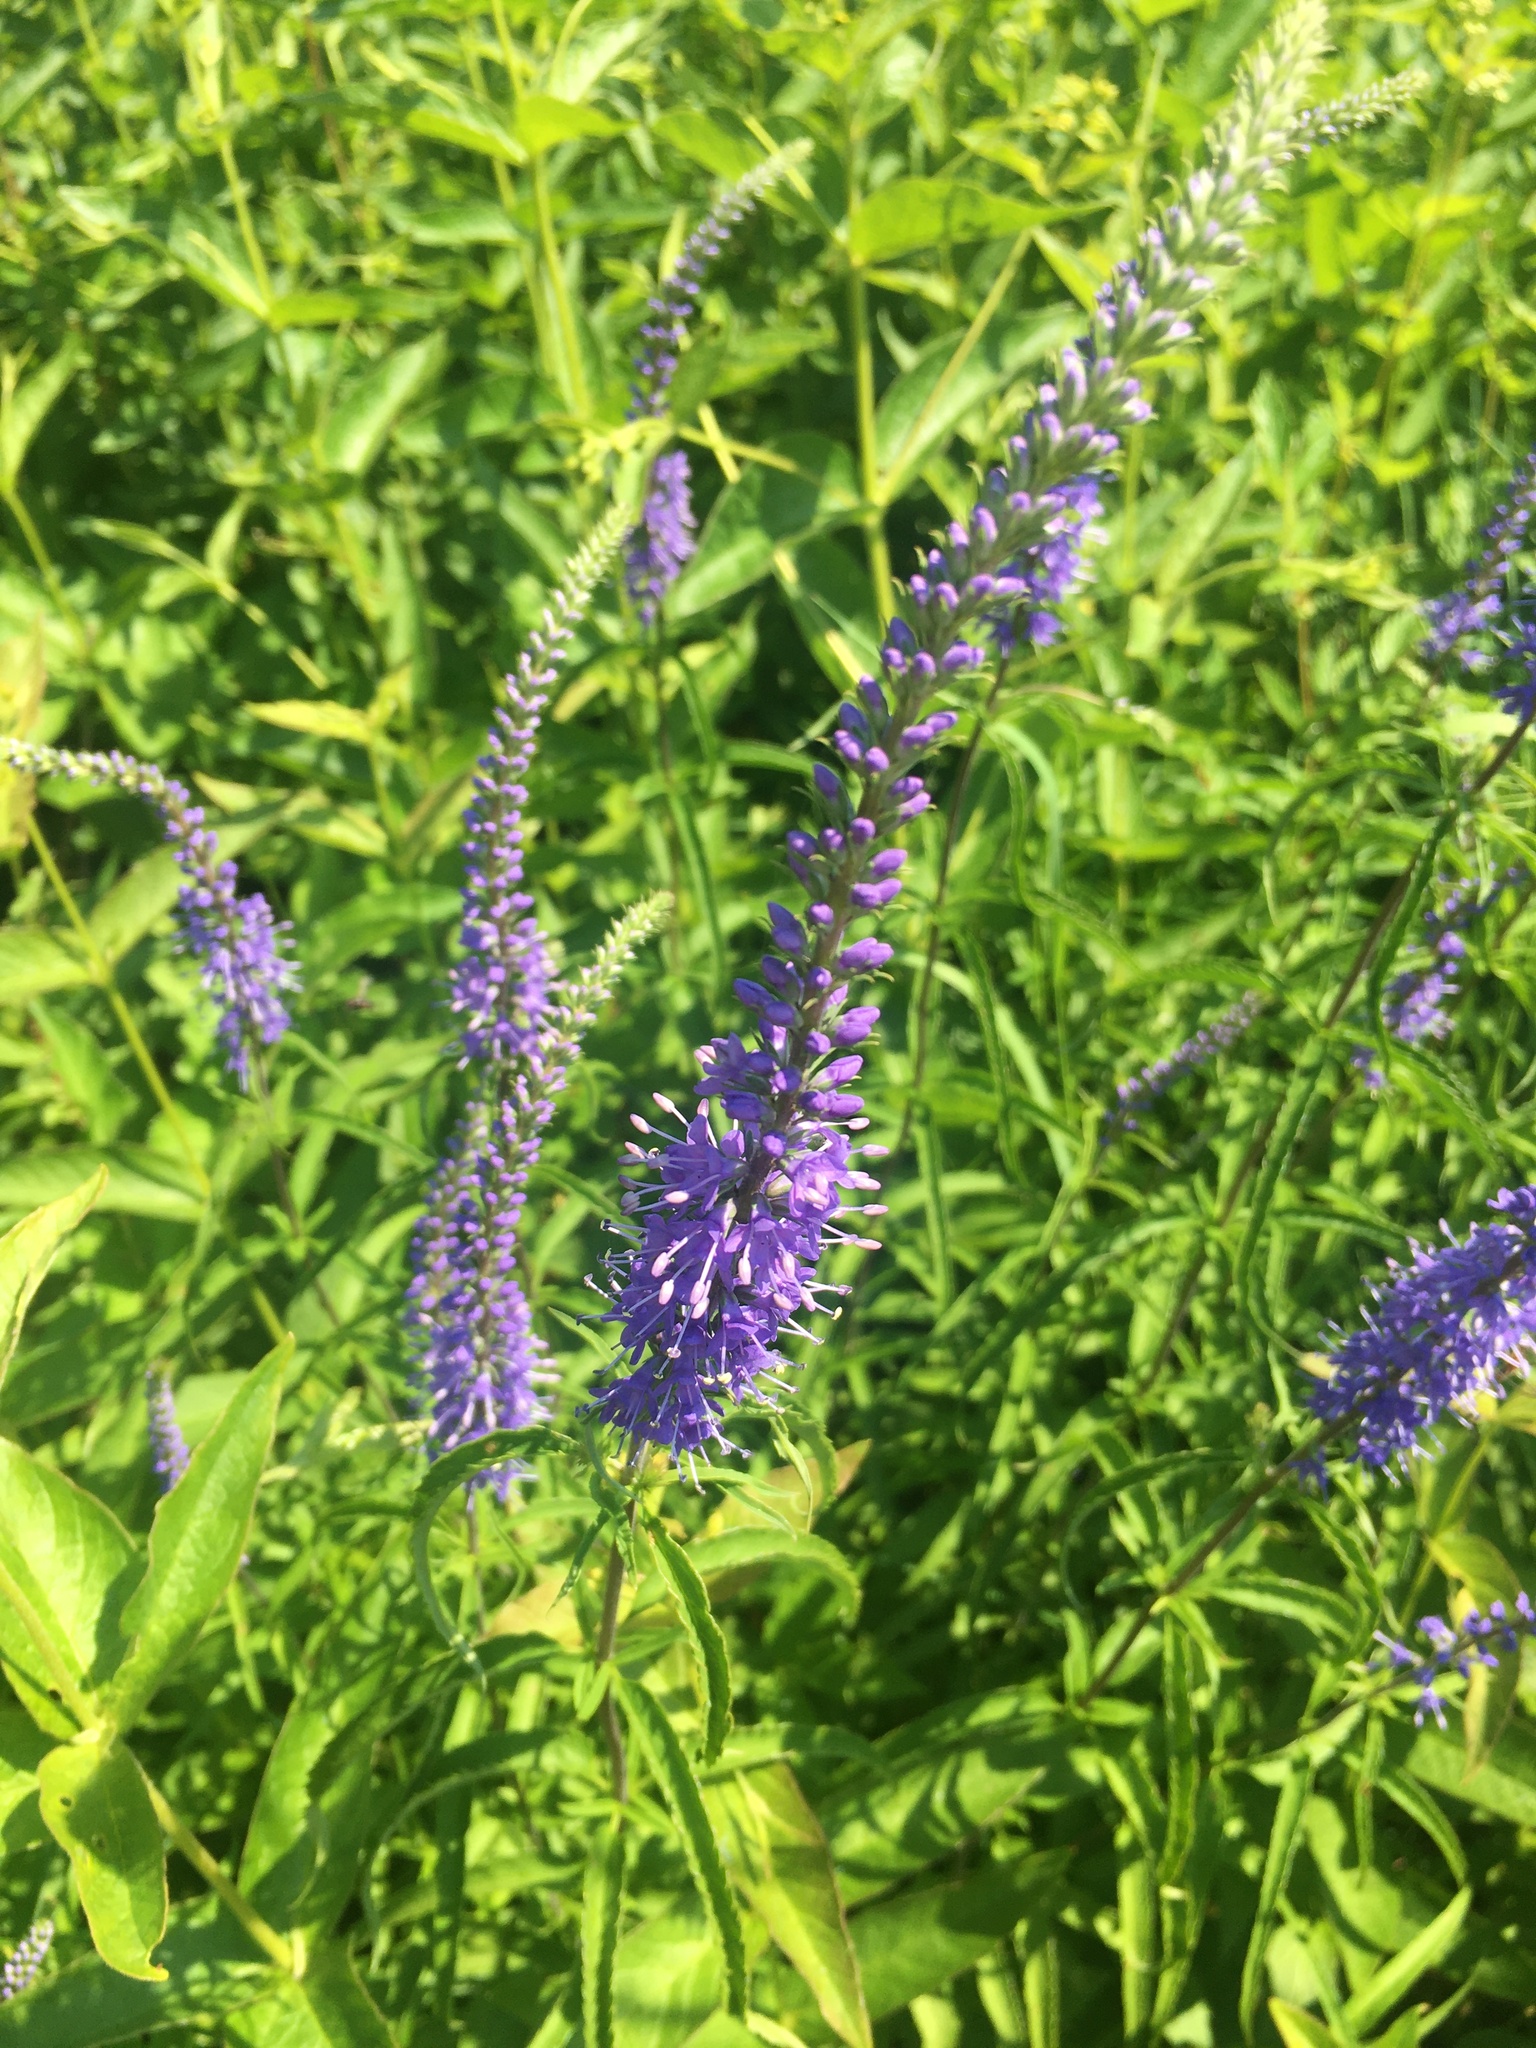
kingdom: Plantae
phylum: Tracheophyta
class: Magnoliopsida
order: Lamiales
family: Plantaginaceae
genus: Veronica
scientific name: Veronica longifolia
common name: Garden speedwell
